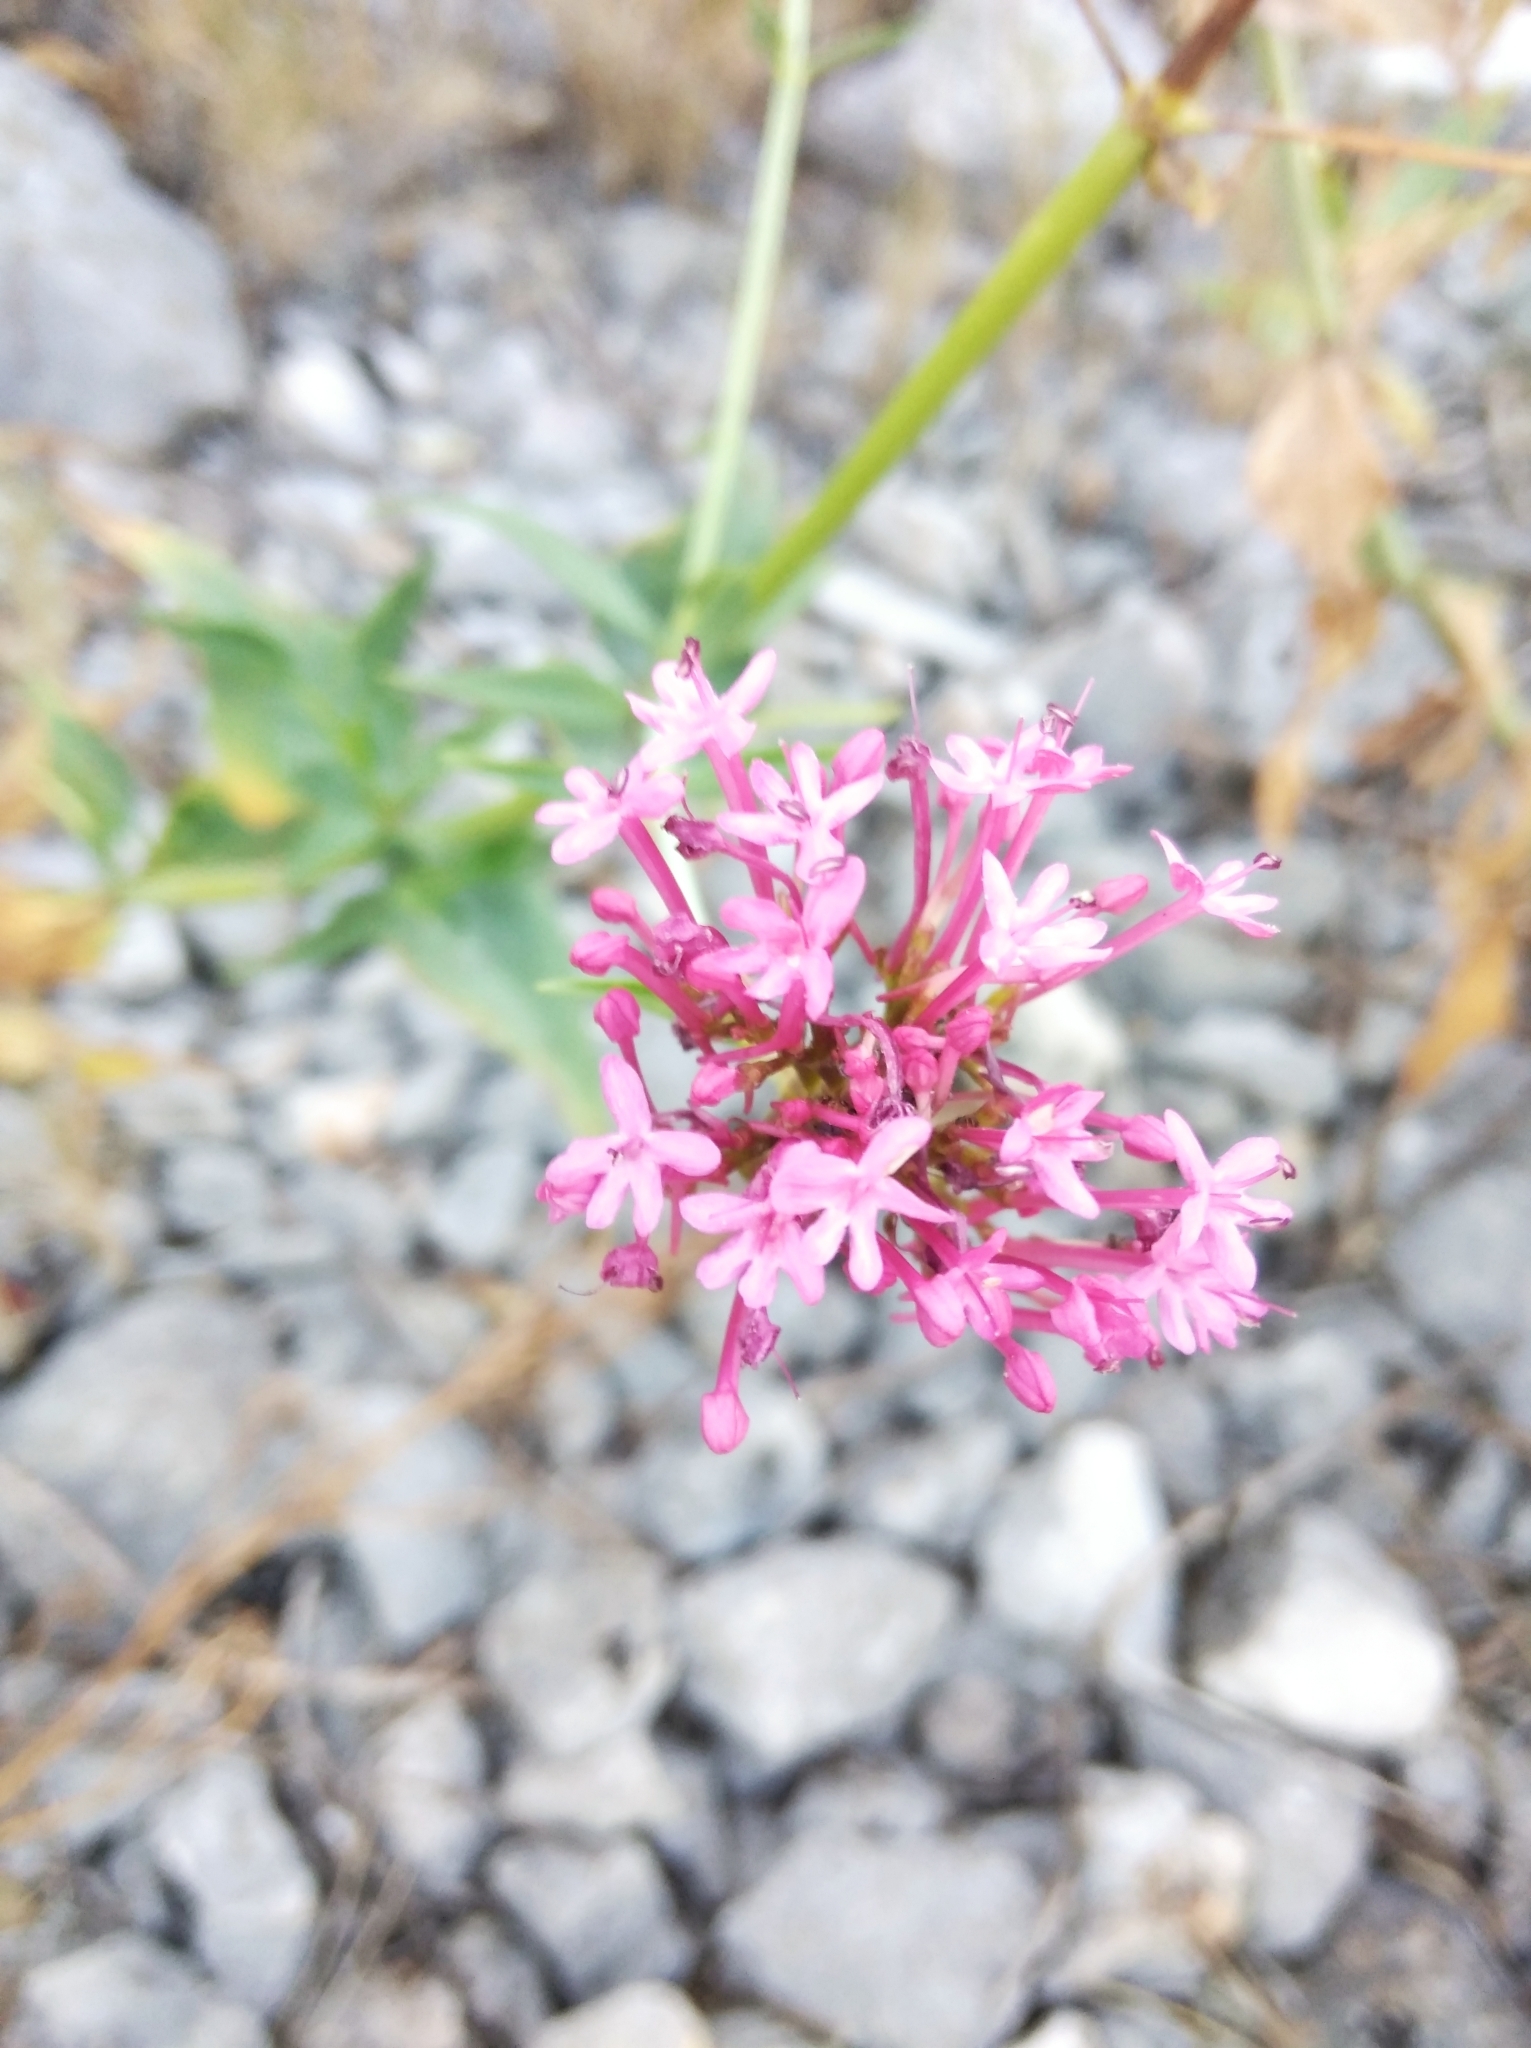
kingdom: Plantae
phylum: Tracheophyta
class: Magnoliopsida
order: Dipsacales
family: Caprifoliaceae
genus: Centranthus
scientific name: Centranthus ruber
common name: Red valerian
